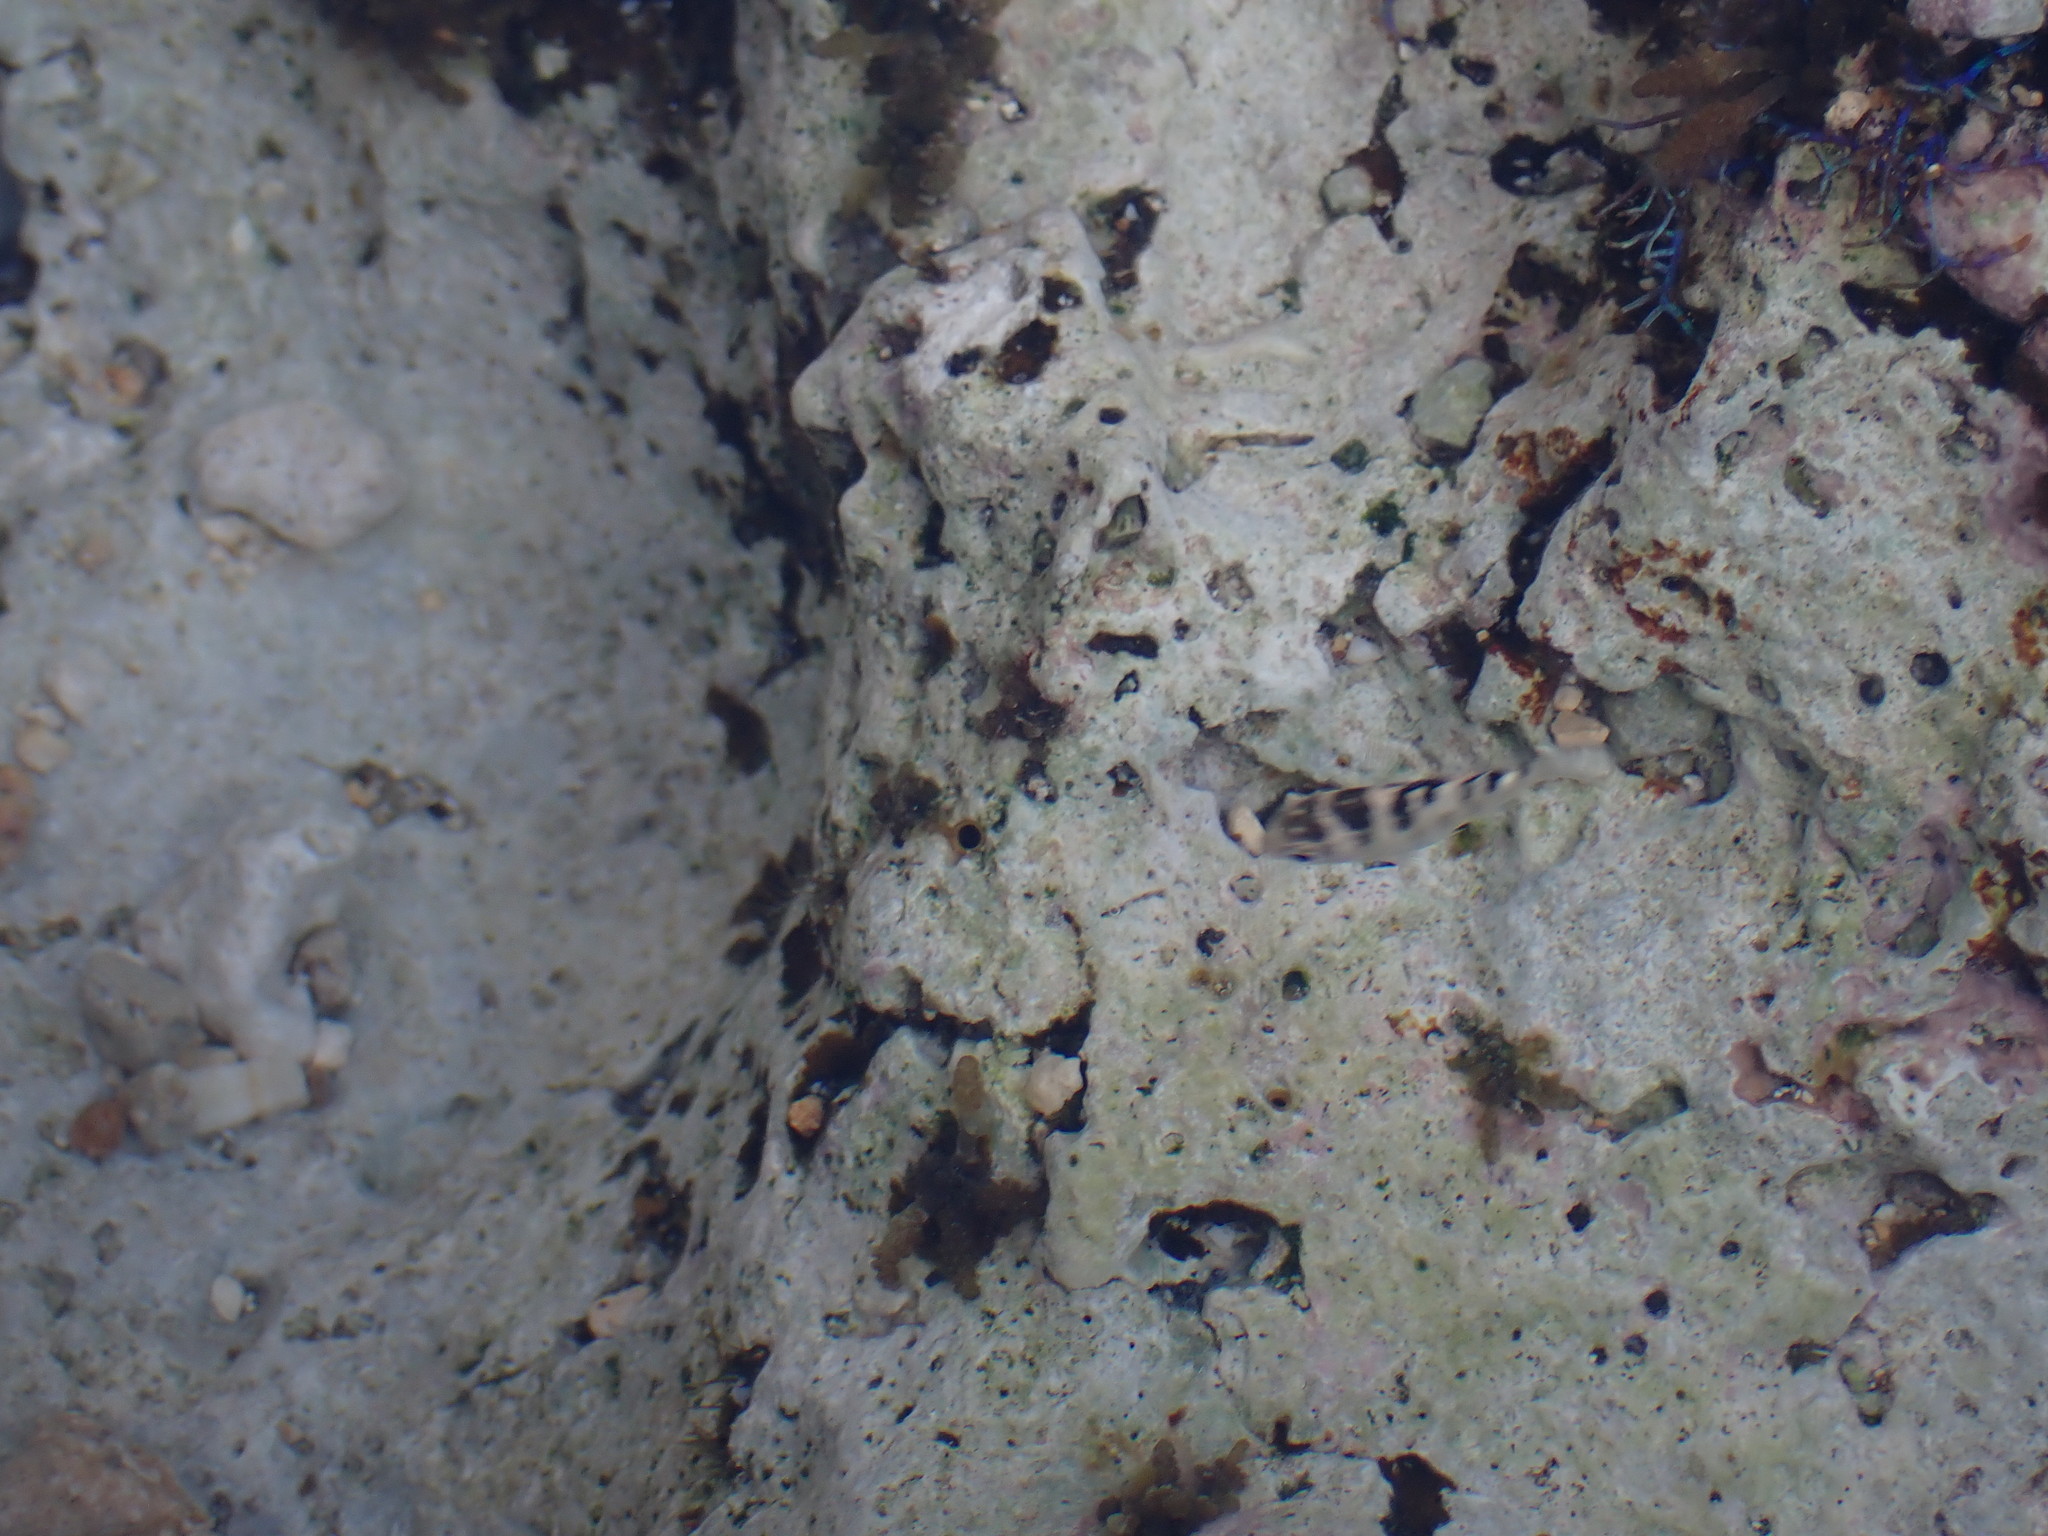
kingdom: Animalia
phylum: Chordata
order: Perciformes
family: Pomacentridae
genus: Abudefduf
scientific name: Abudefduf taurus
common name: Night sergeant
